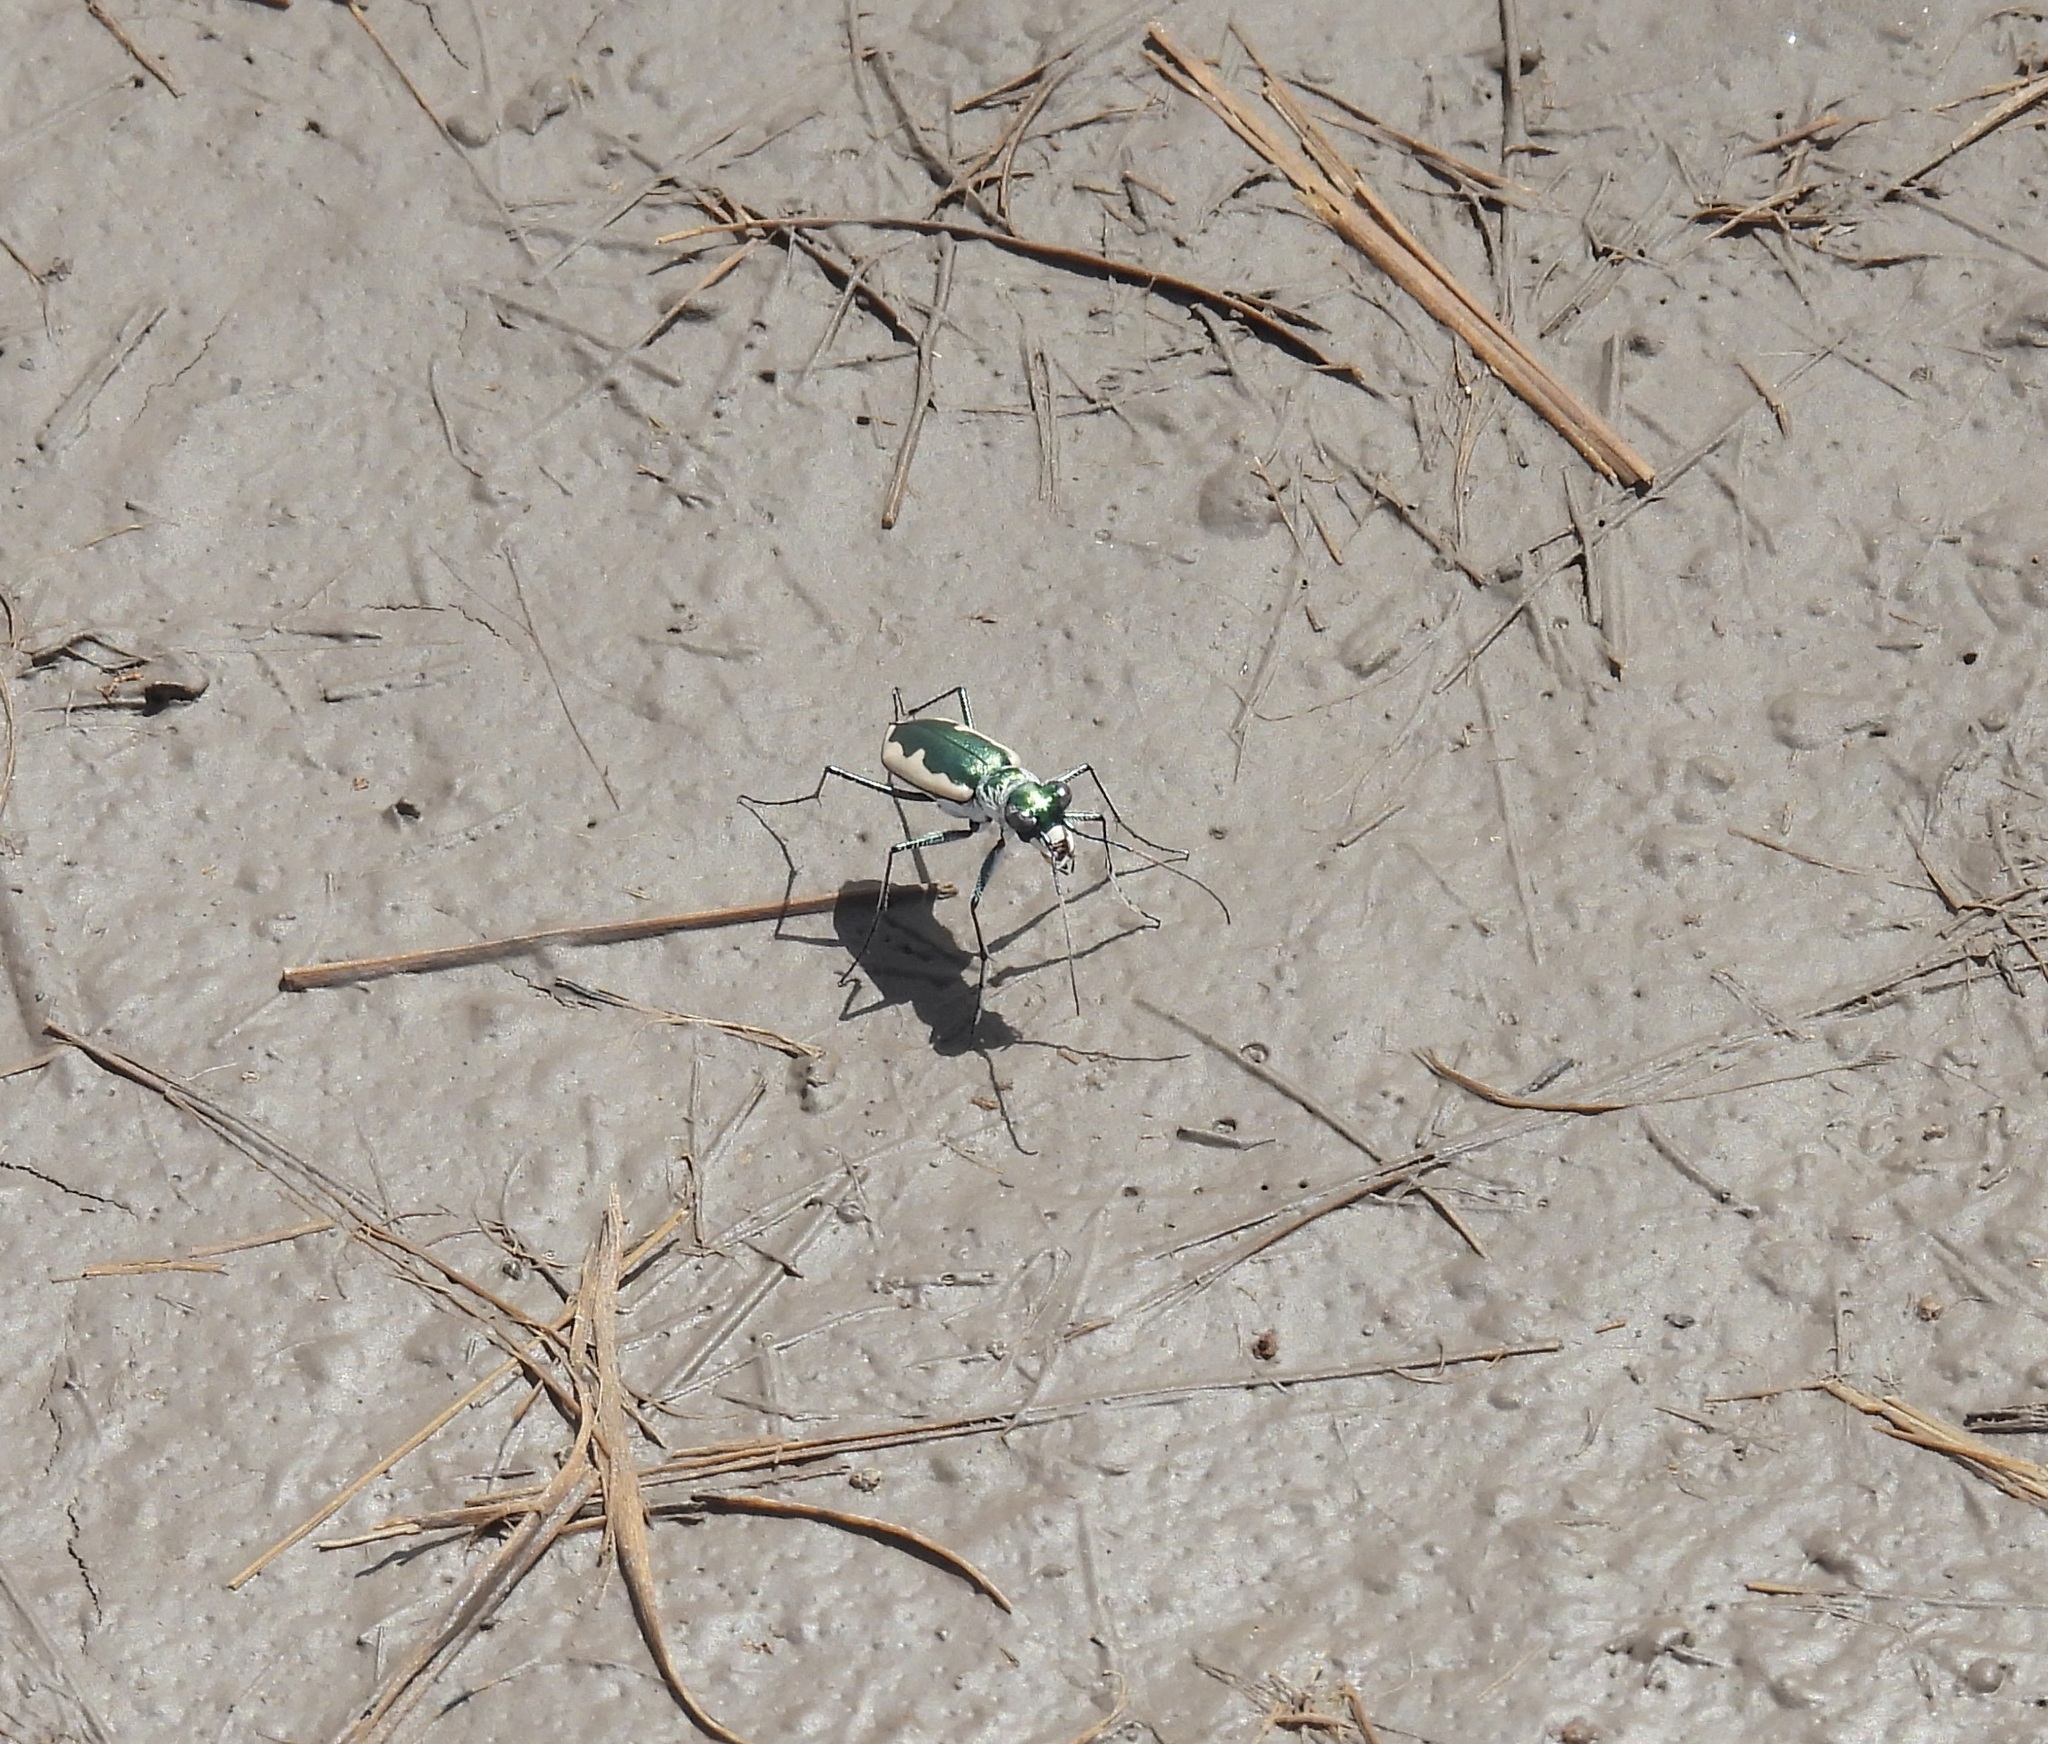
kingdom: Animalia
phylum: Arthropoda
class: Insecta
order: Coleoptera
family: Carabidae
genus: Eunota
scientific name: Eunota circumpicta
